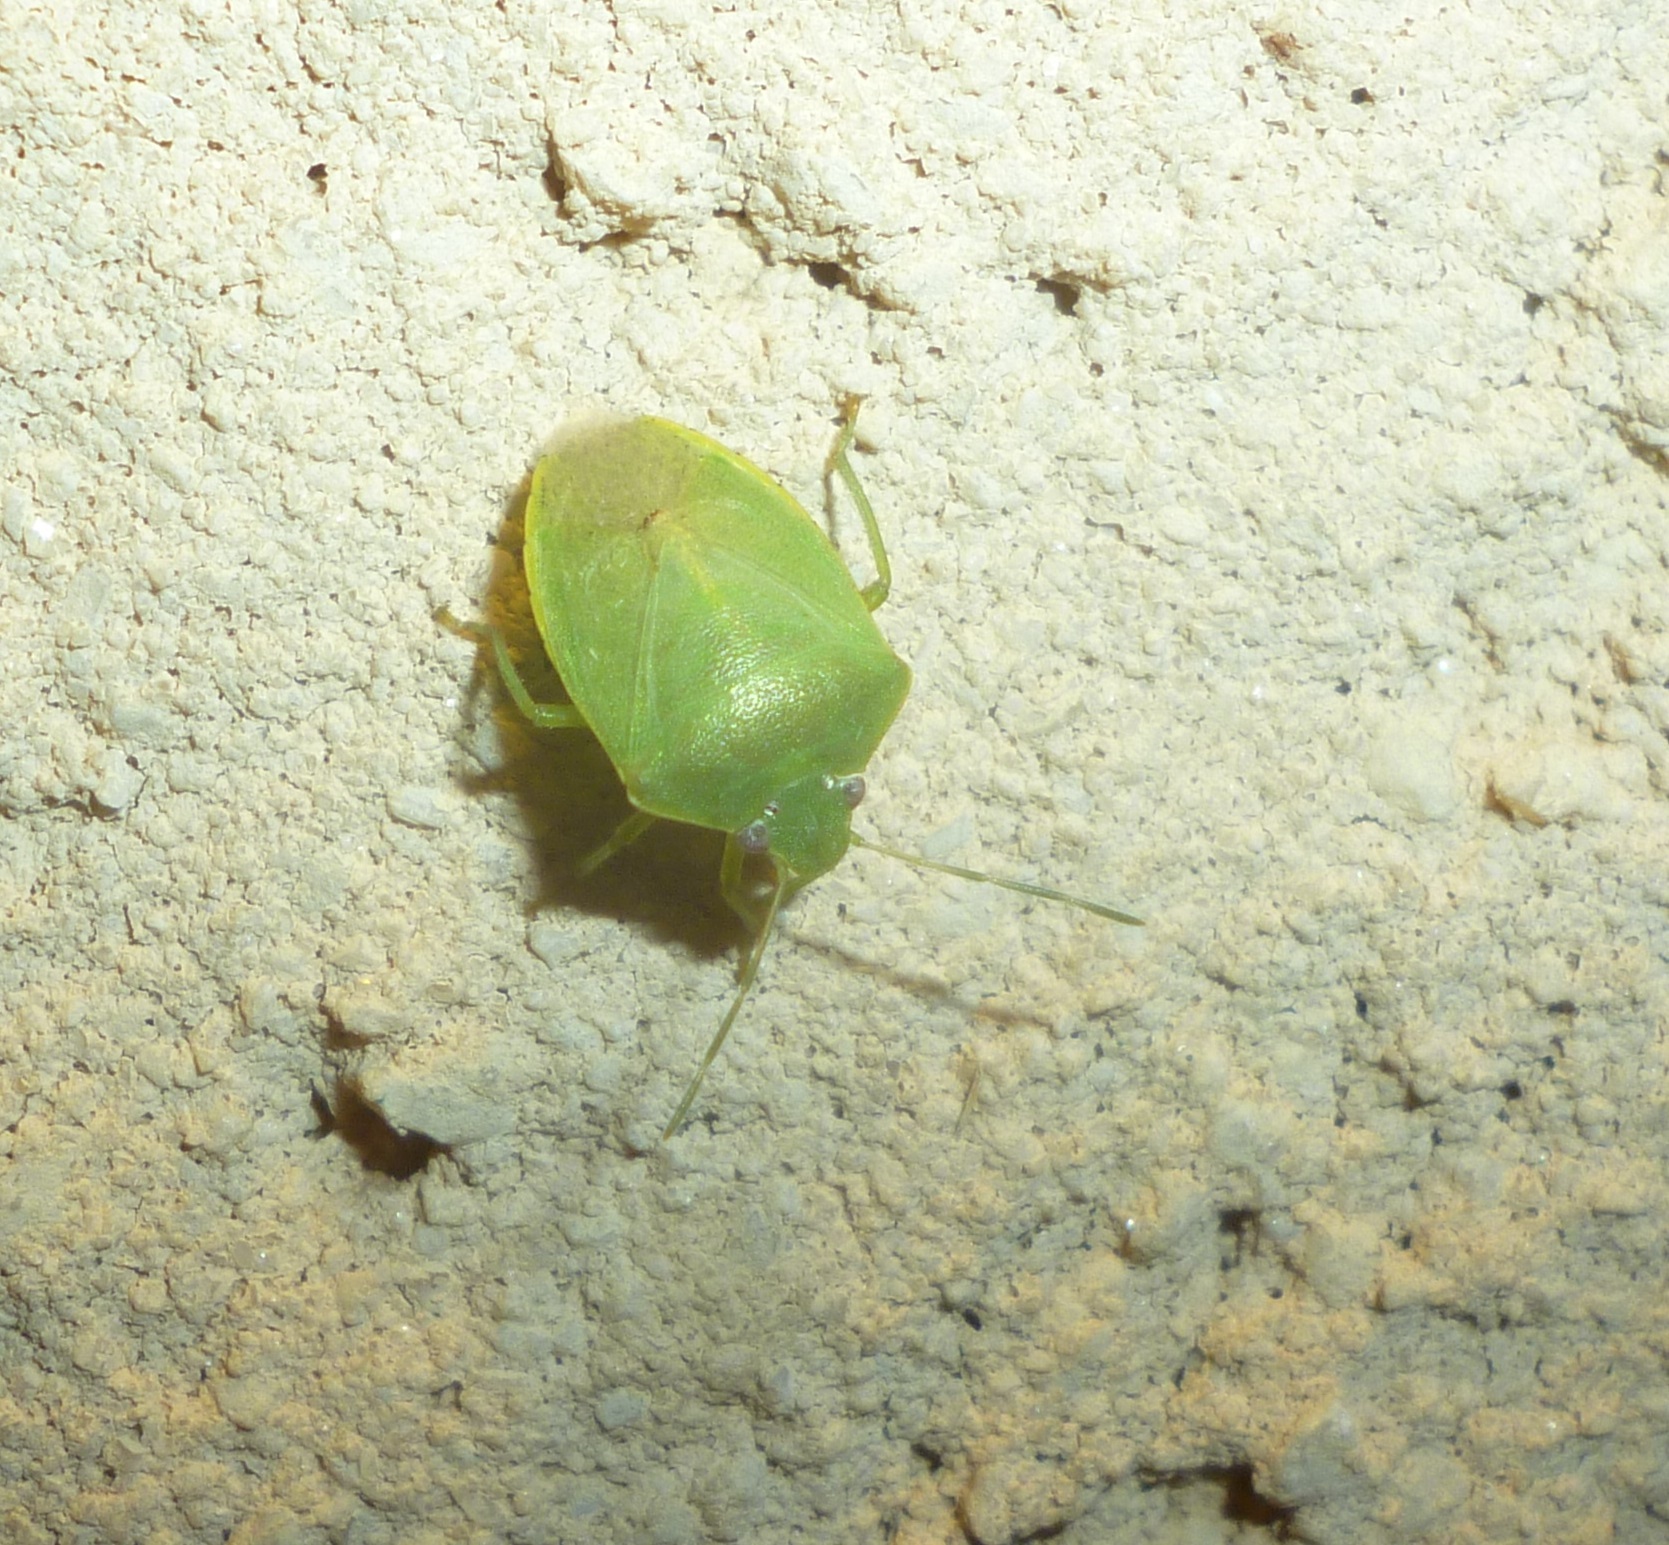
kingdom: Animalia
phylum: Arthropoda
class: Insecta
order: Hemiptera
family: Pentatomidae
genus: Acrosternum
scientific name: Acrosternum millierei
